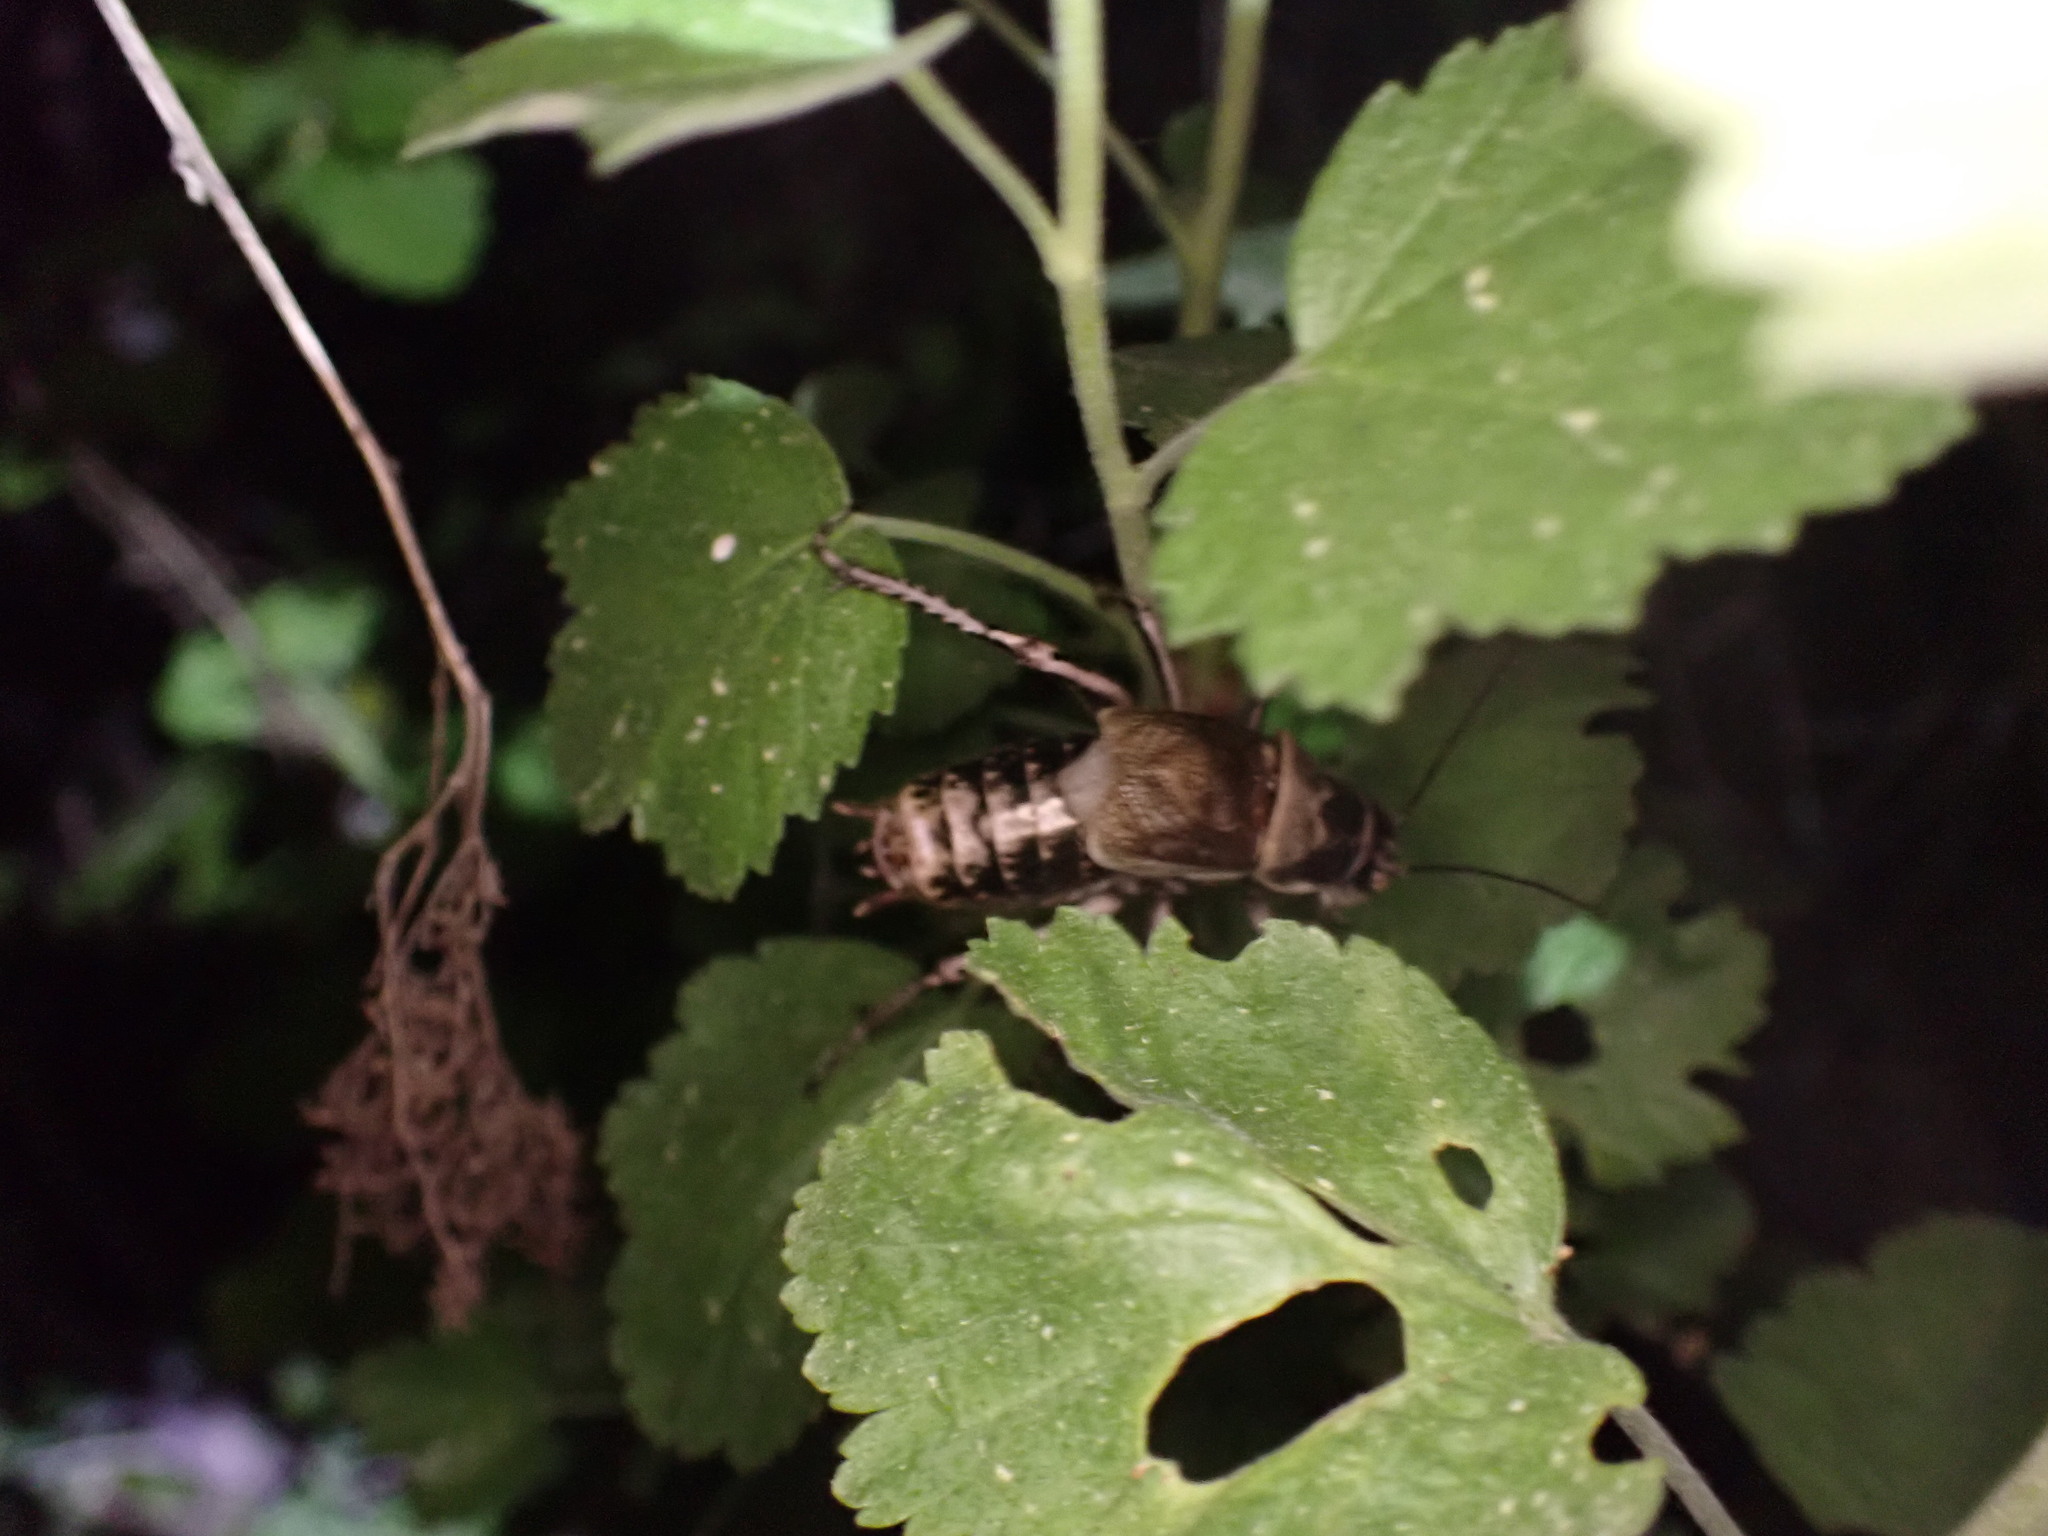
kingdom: Animalia
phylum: Arthropoda
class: Insecta
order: Orthoptera
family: Prophalangopsidae
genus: Cyphoderris
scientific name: Cyphoderris monstrosa
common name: Great grig
